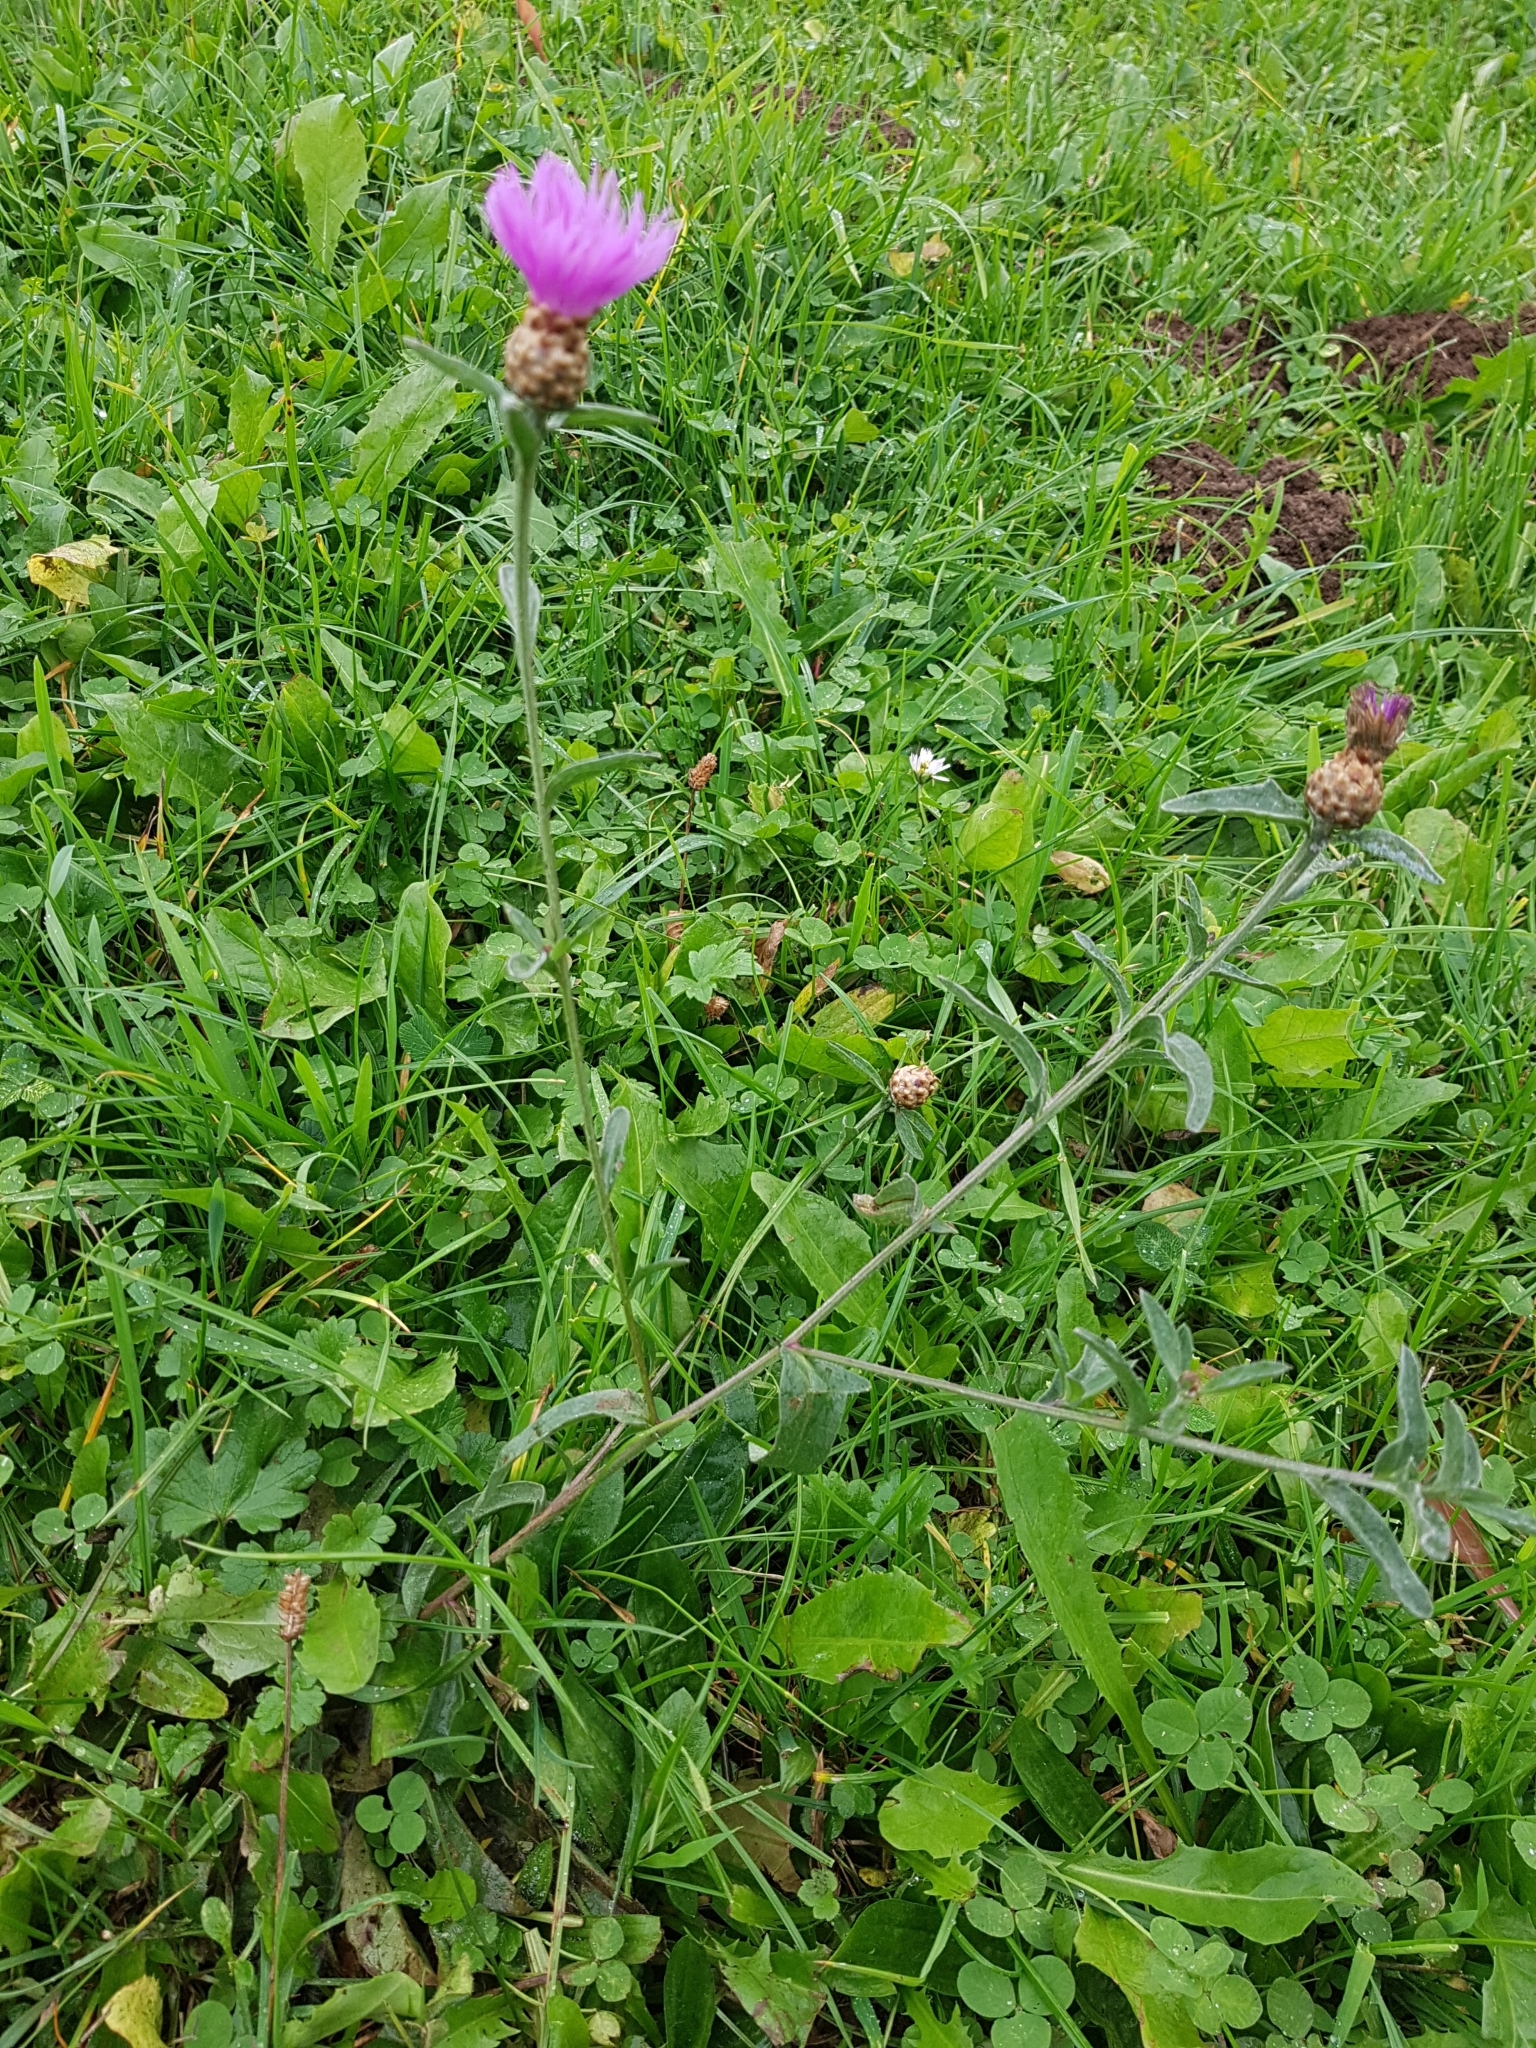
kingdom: Plantae
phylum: Tracheophyta
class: Magnoliopsida
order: Asterales
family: Asteraceae
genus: Centaurea
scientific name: Centaurea jacea
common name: Brown knapweed
